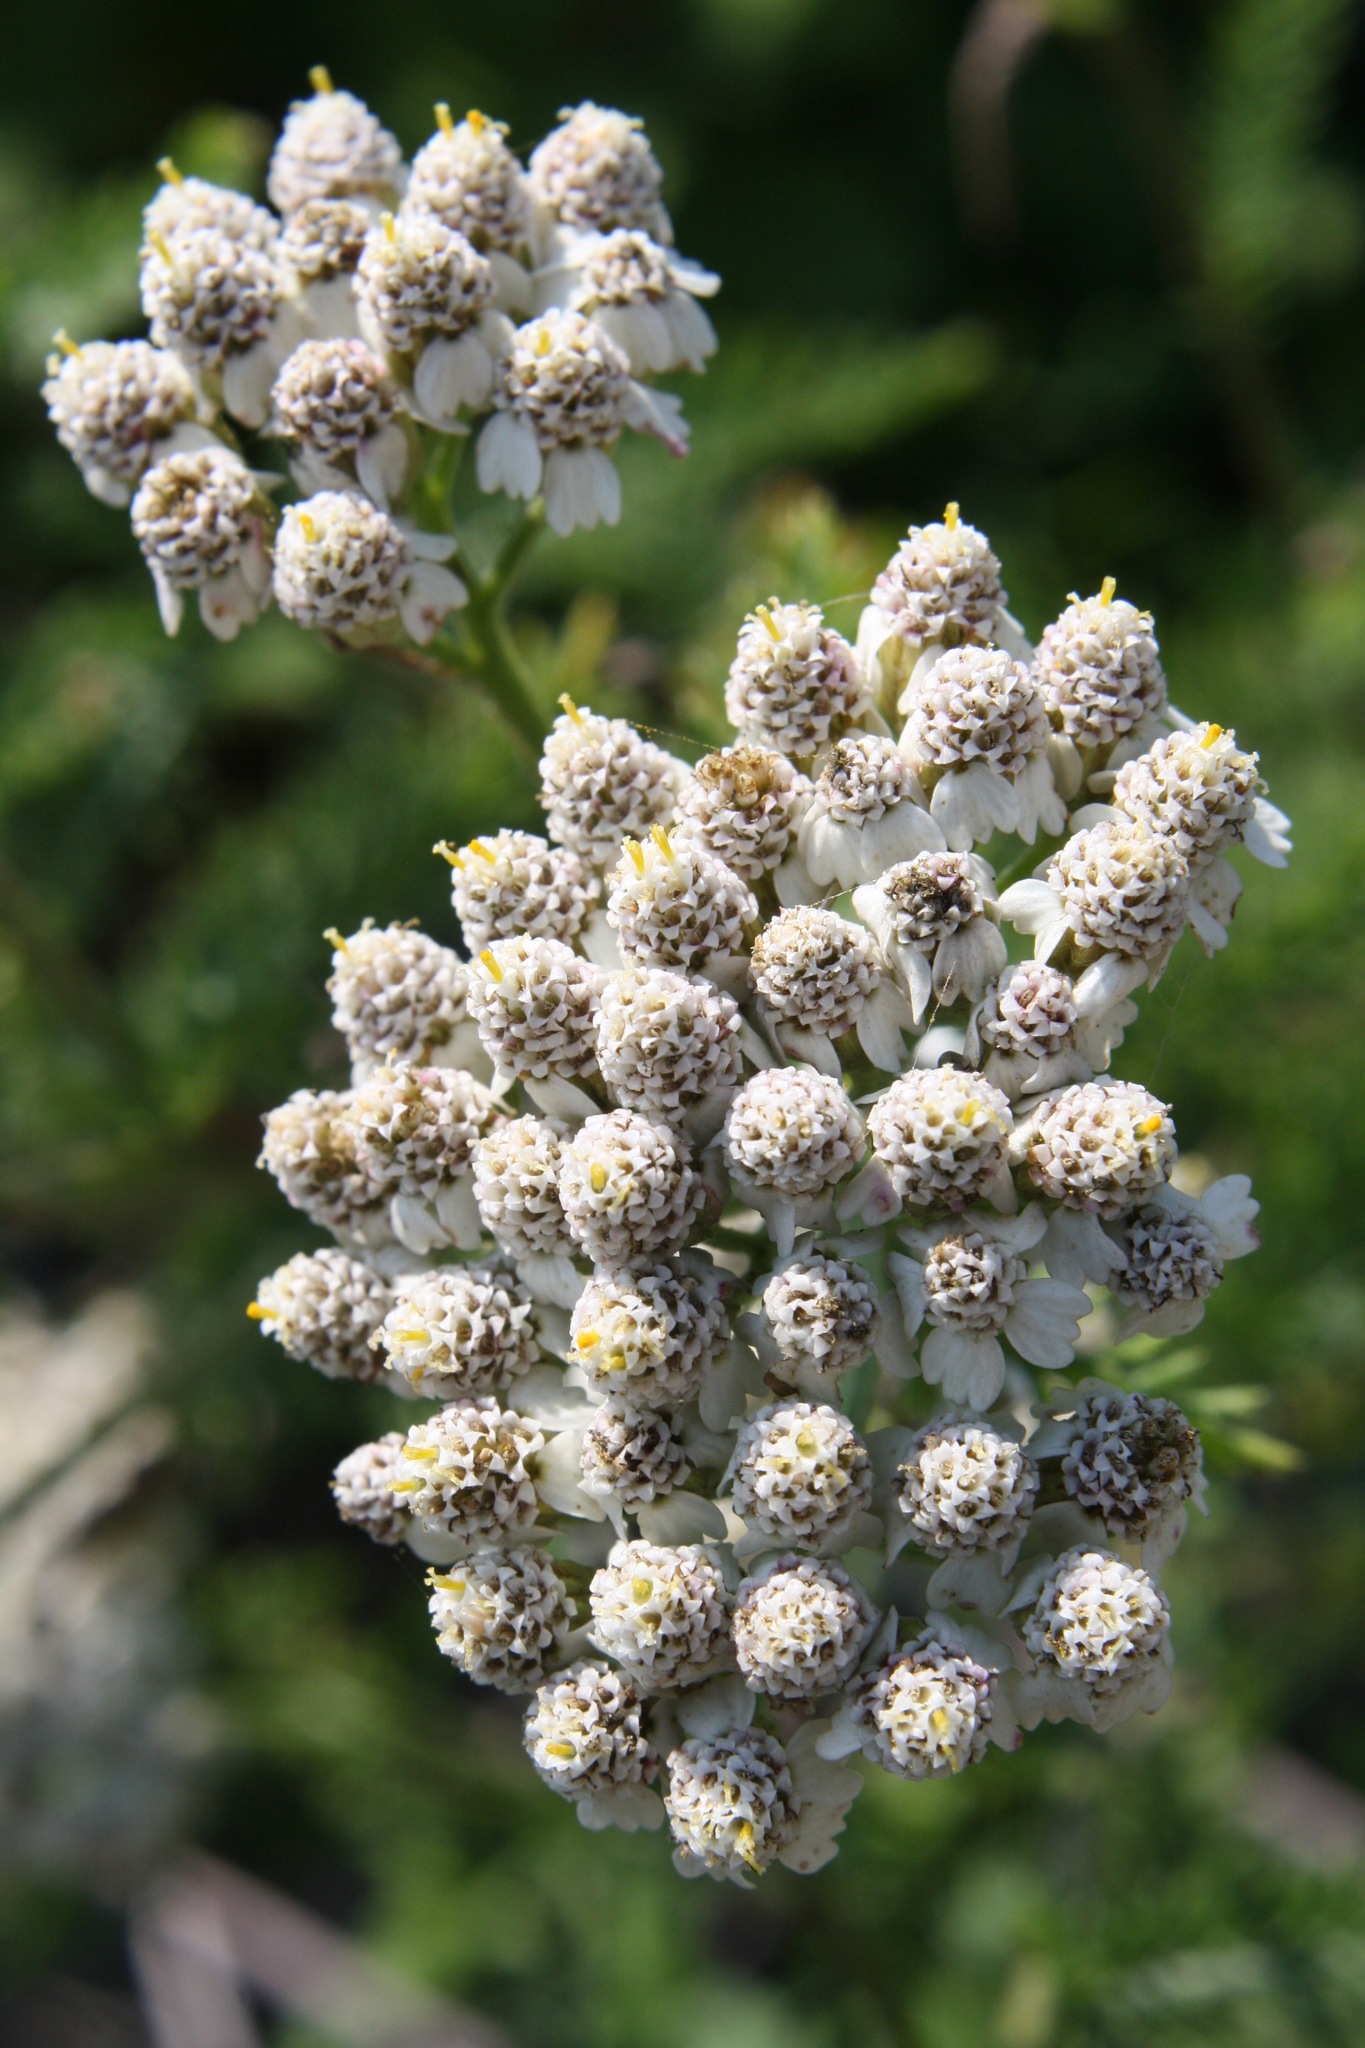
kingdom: Plantae
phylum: Tracheophyta
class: Magnoliopsida
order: Asterales
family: Asteraceae
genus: Achillea
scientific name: Achillea millefolium
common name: Yarrow
